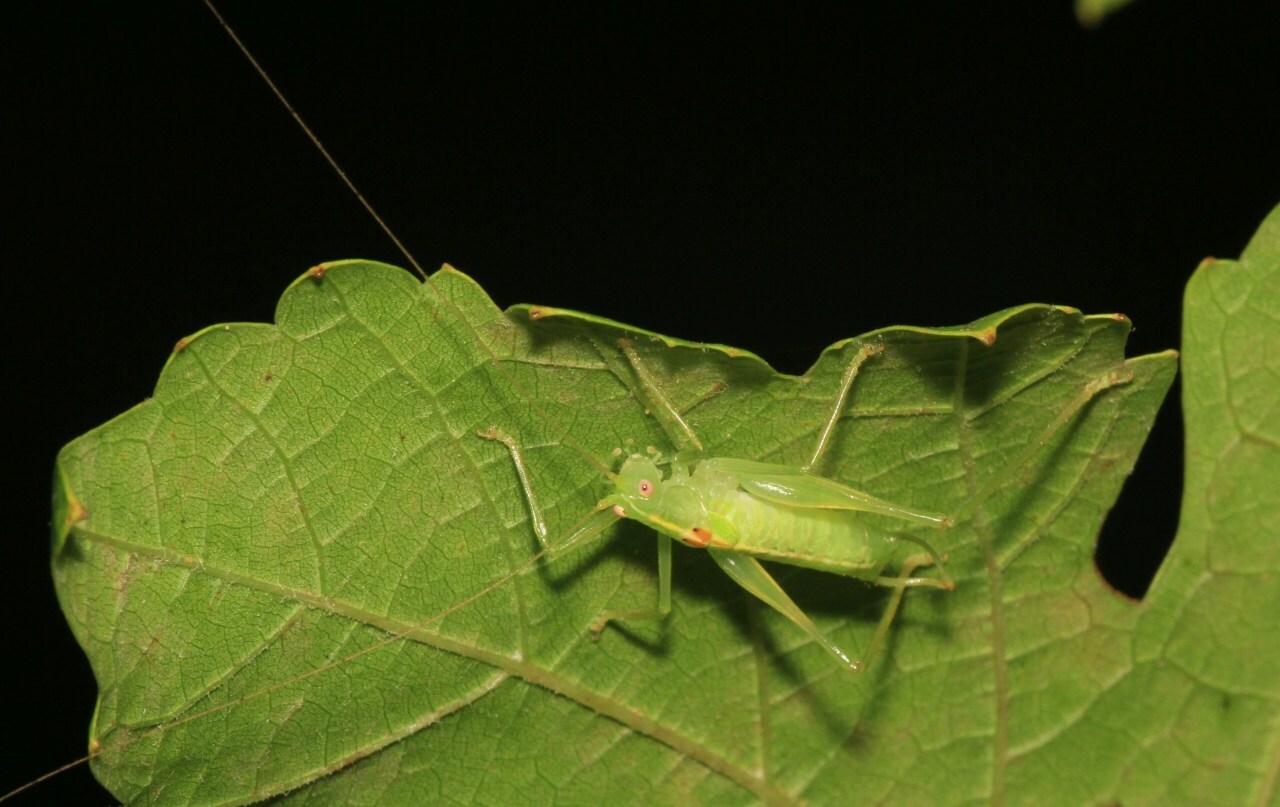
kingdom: Animalia
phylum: Arthropoda
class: Insecta
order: Orthoptera
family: Tettigoniidae
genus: Meconema
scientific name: Meconema meridionale
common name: Southern oak bush-cricket
